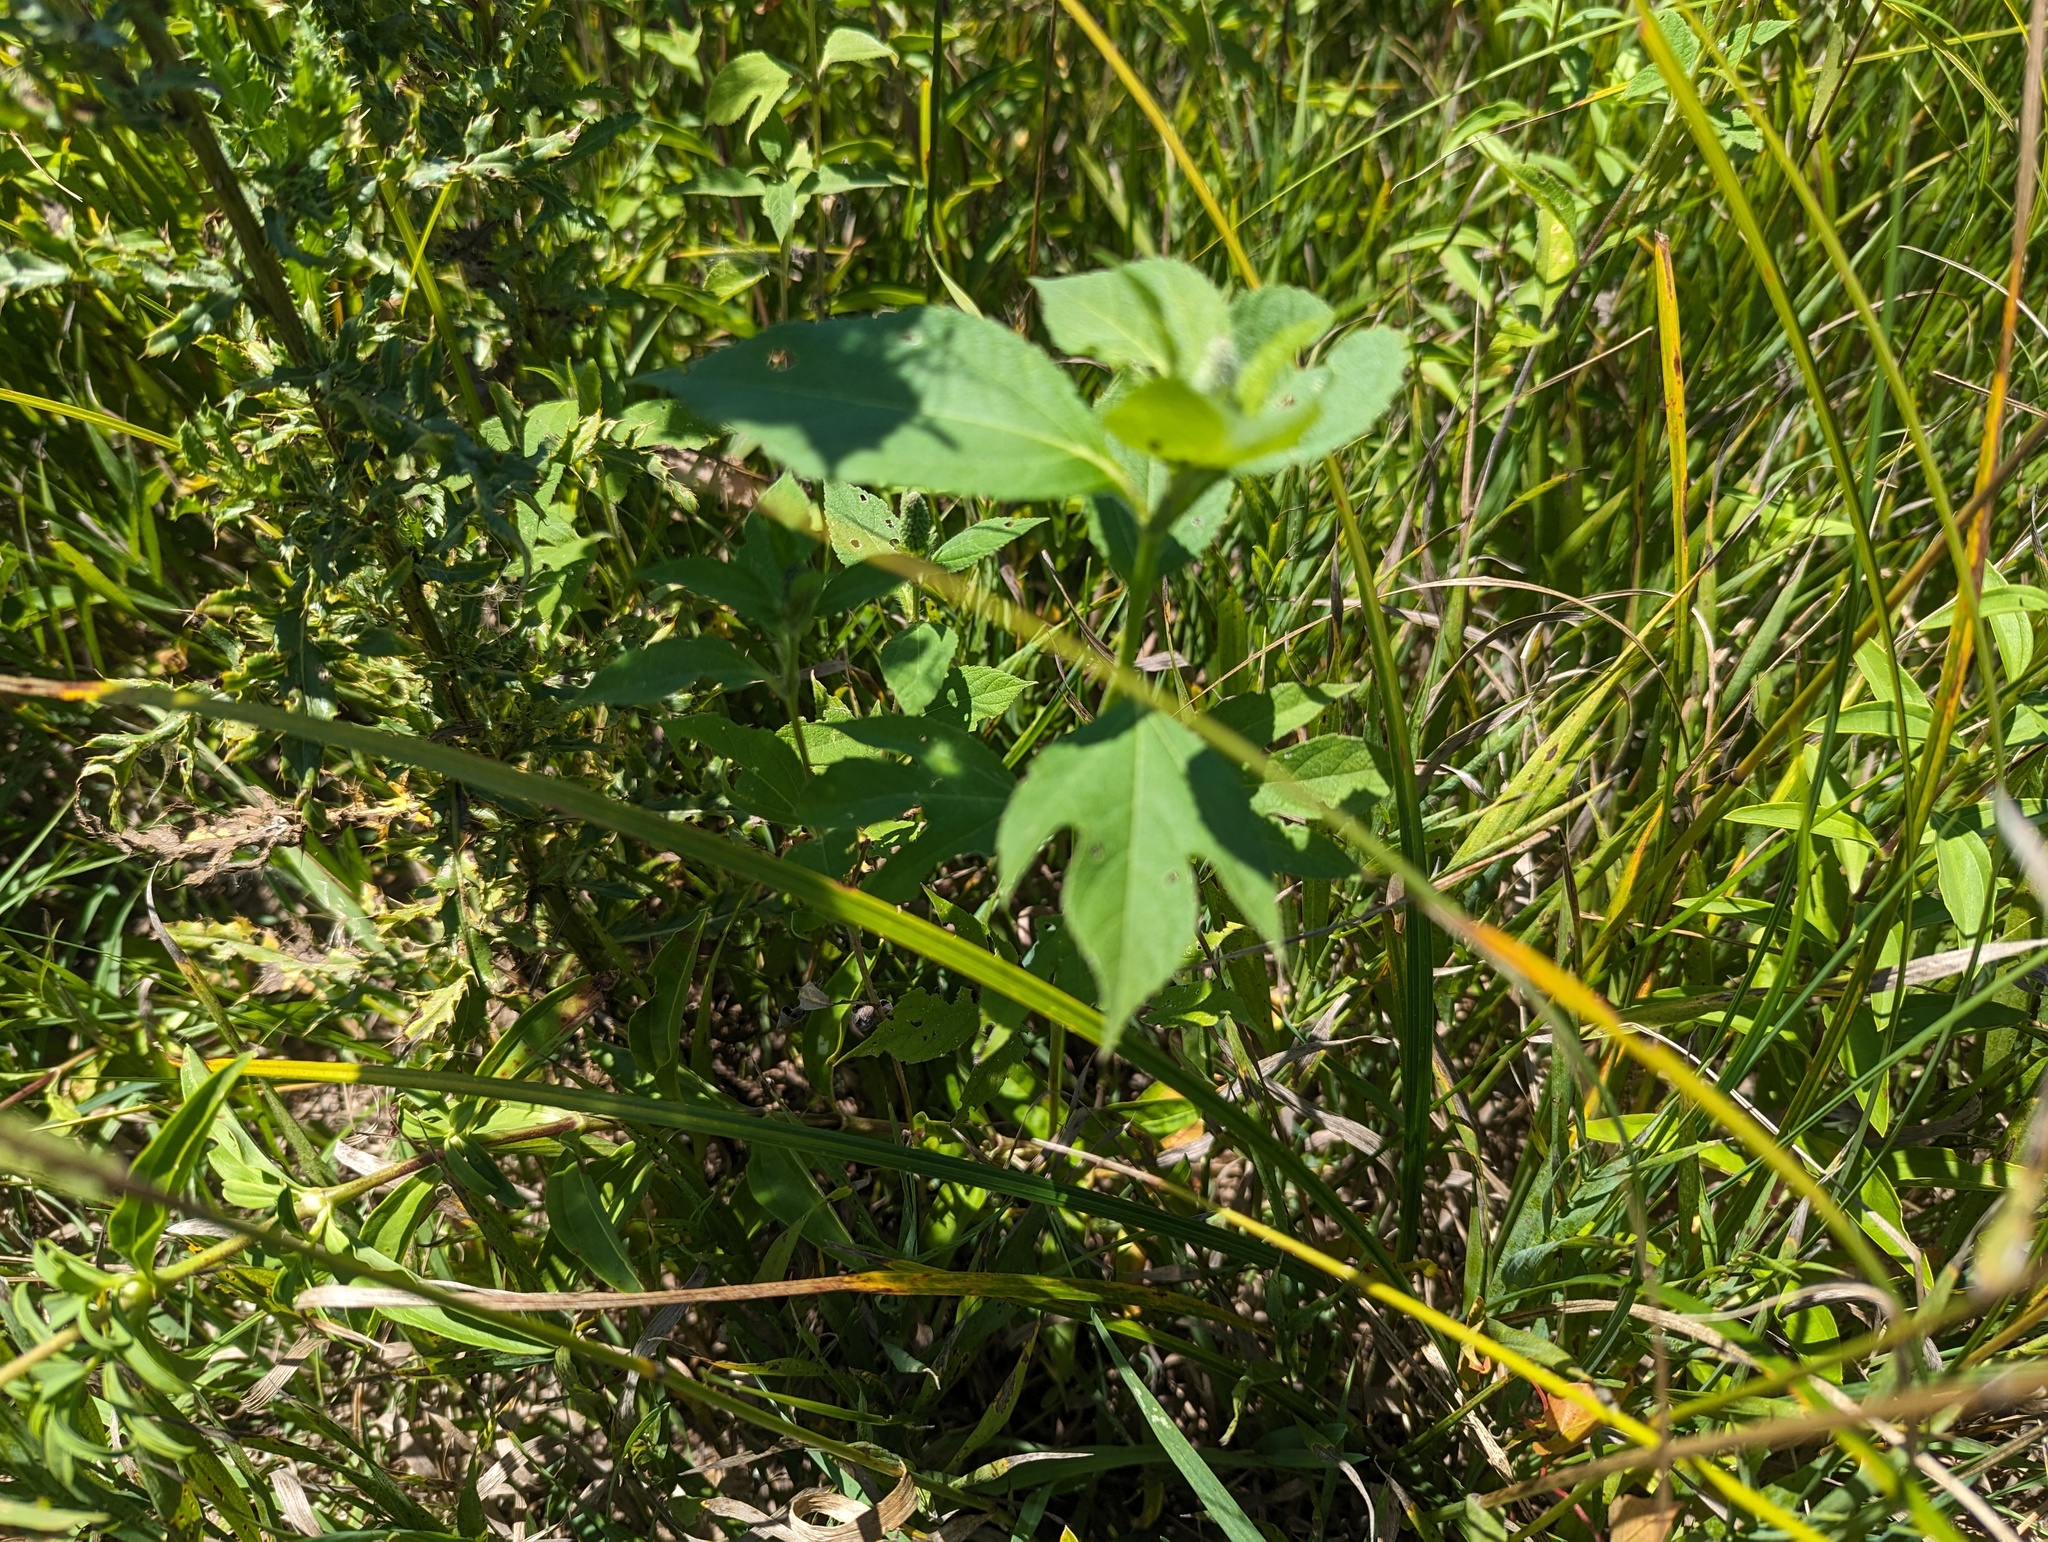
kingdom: Plantae
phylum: Tracheophyta
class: Magnoliopsida
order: Asterales
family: Asteraceae
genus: Ambrosia
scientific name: Ambrosia trifida
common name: Giant ragweed
